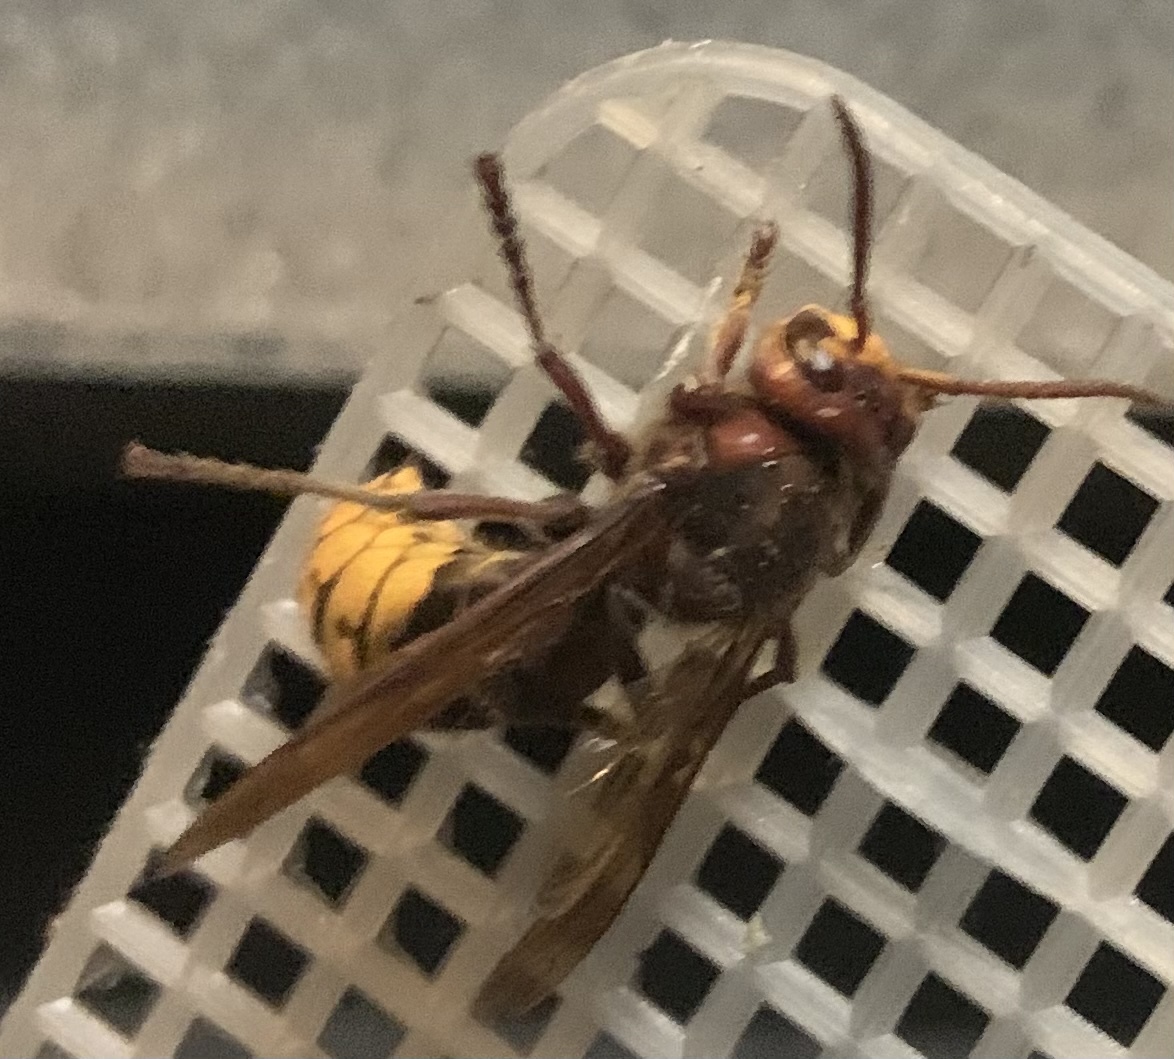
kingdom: Animalia
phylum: Arthropoda
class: Insecta
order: Hymenoptera
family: Vespidae
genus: Vespa
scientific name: Vespa crabro
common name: Hornet
